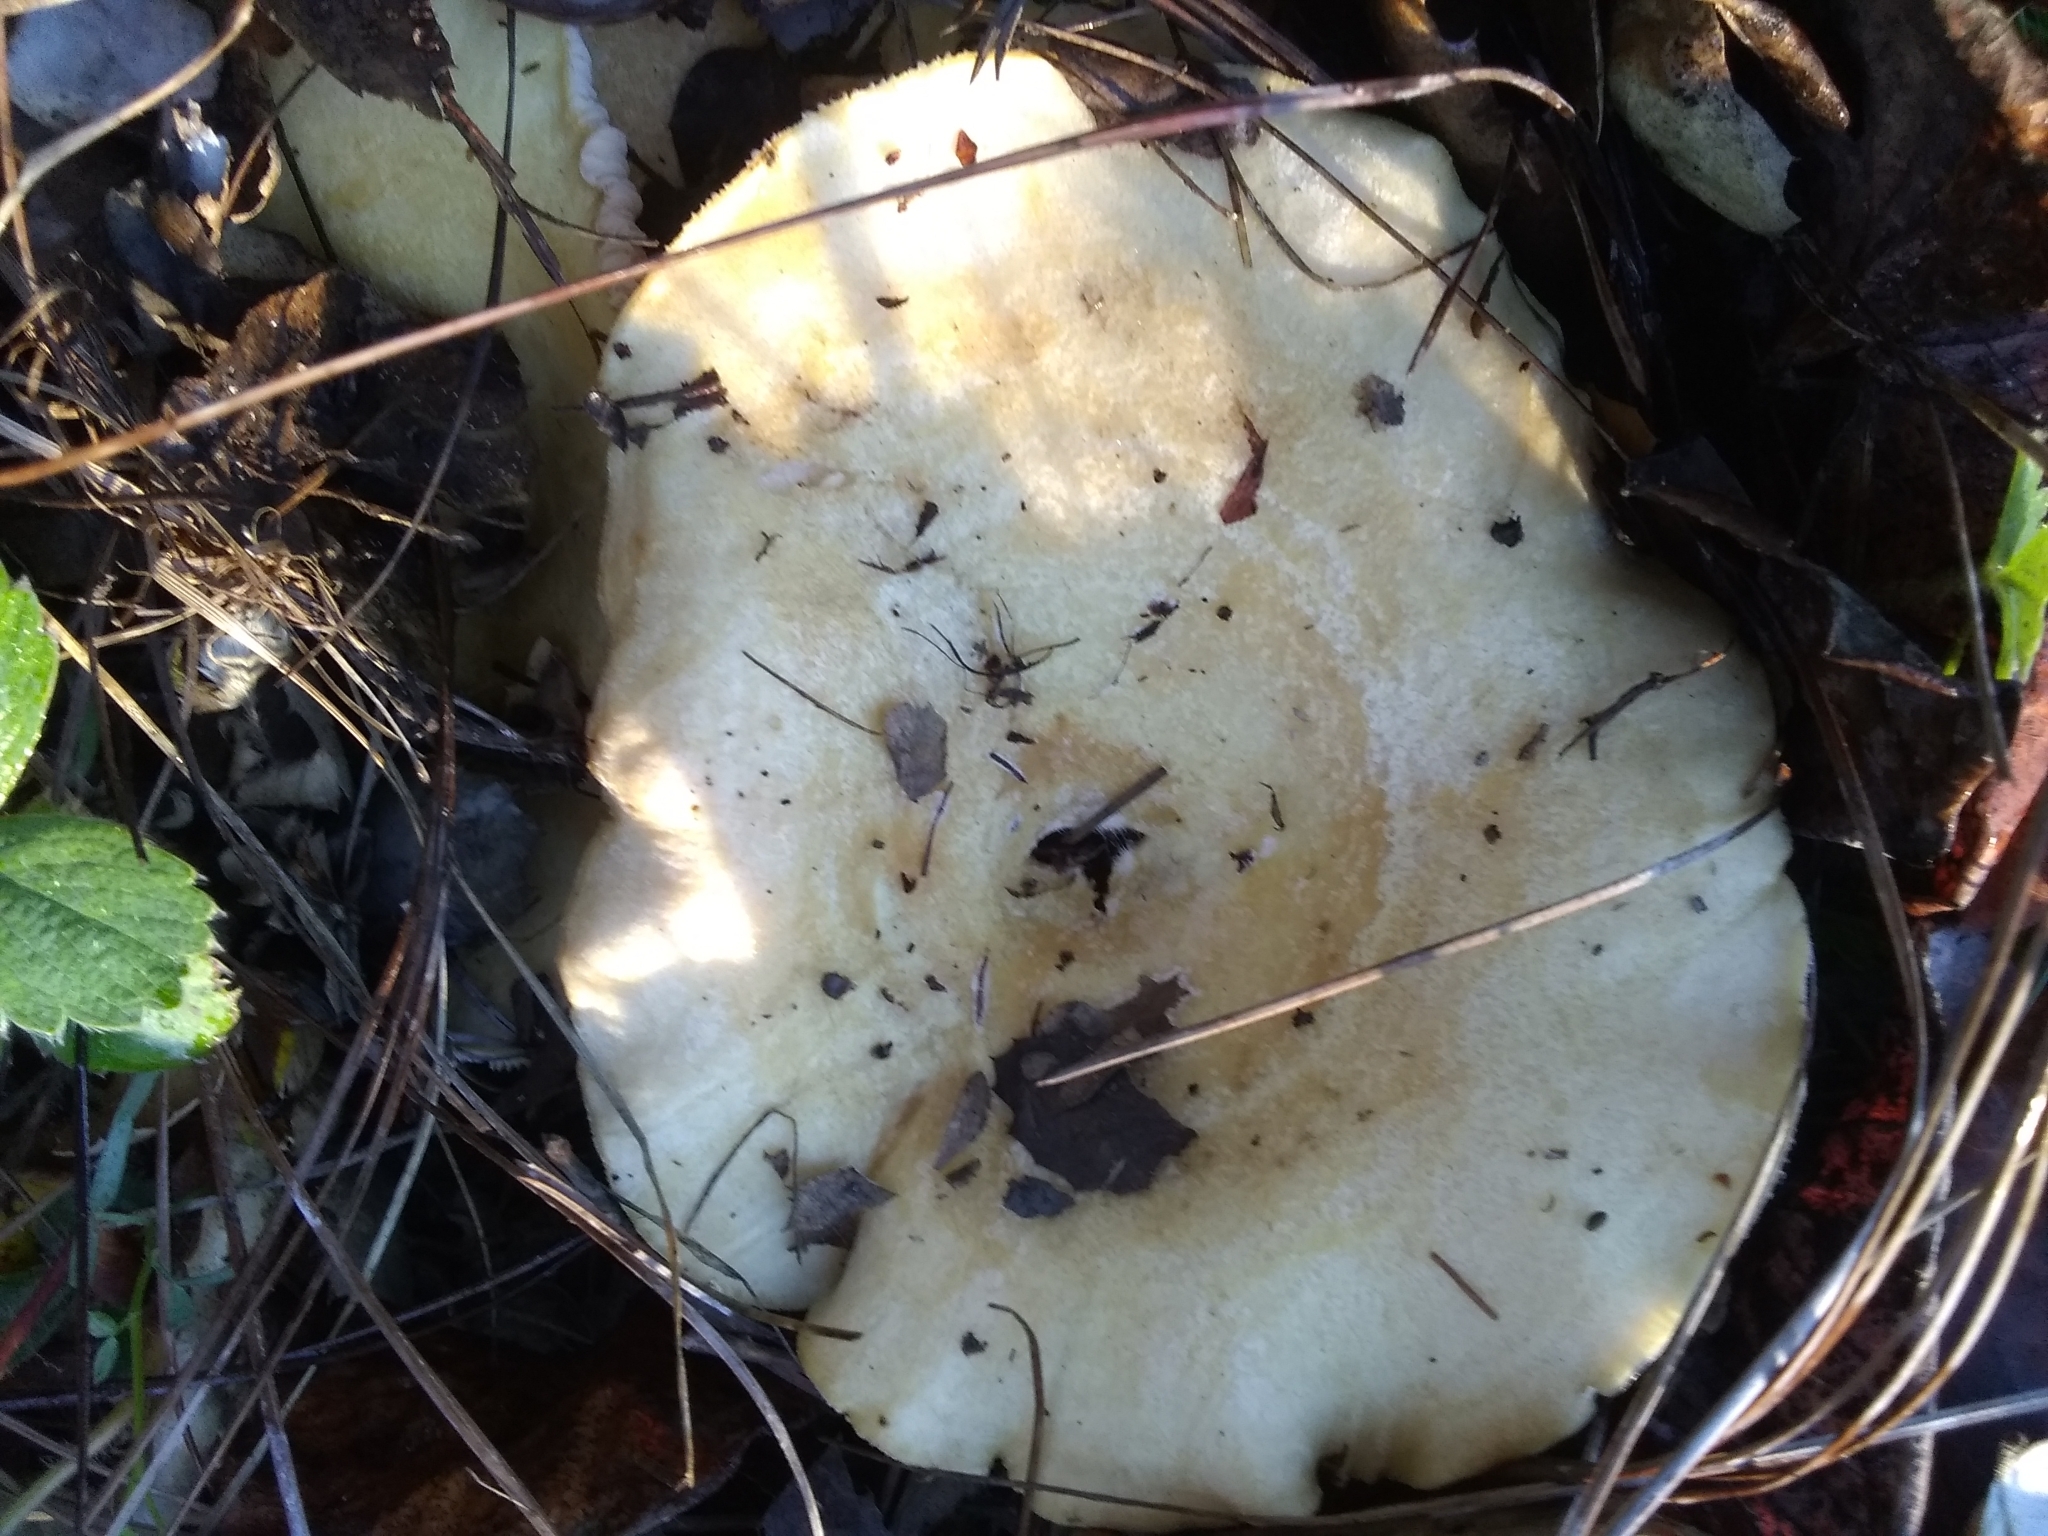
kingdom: Fungi
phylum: Basidiomycota
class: Agaricomycetes
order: Russulales
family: Russulaceae
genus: Lactarius
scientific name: Lactarius alnicola
